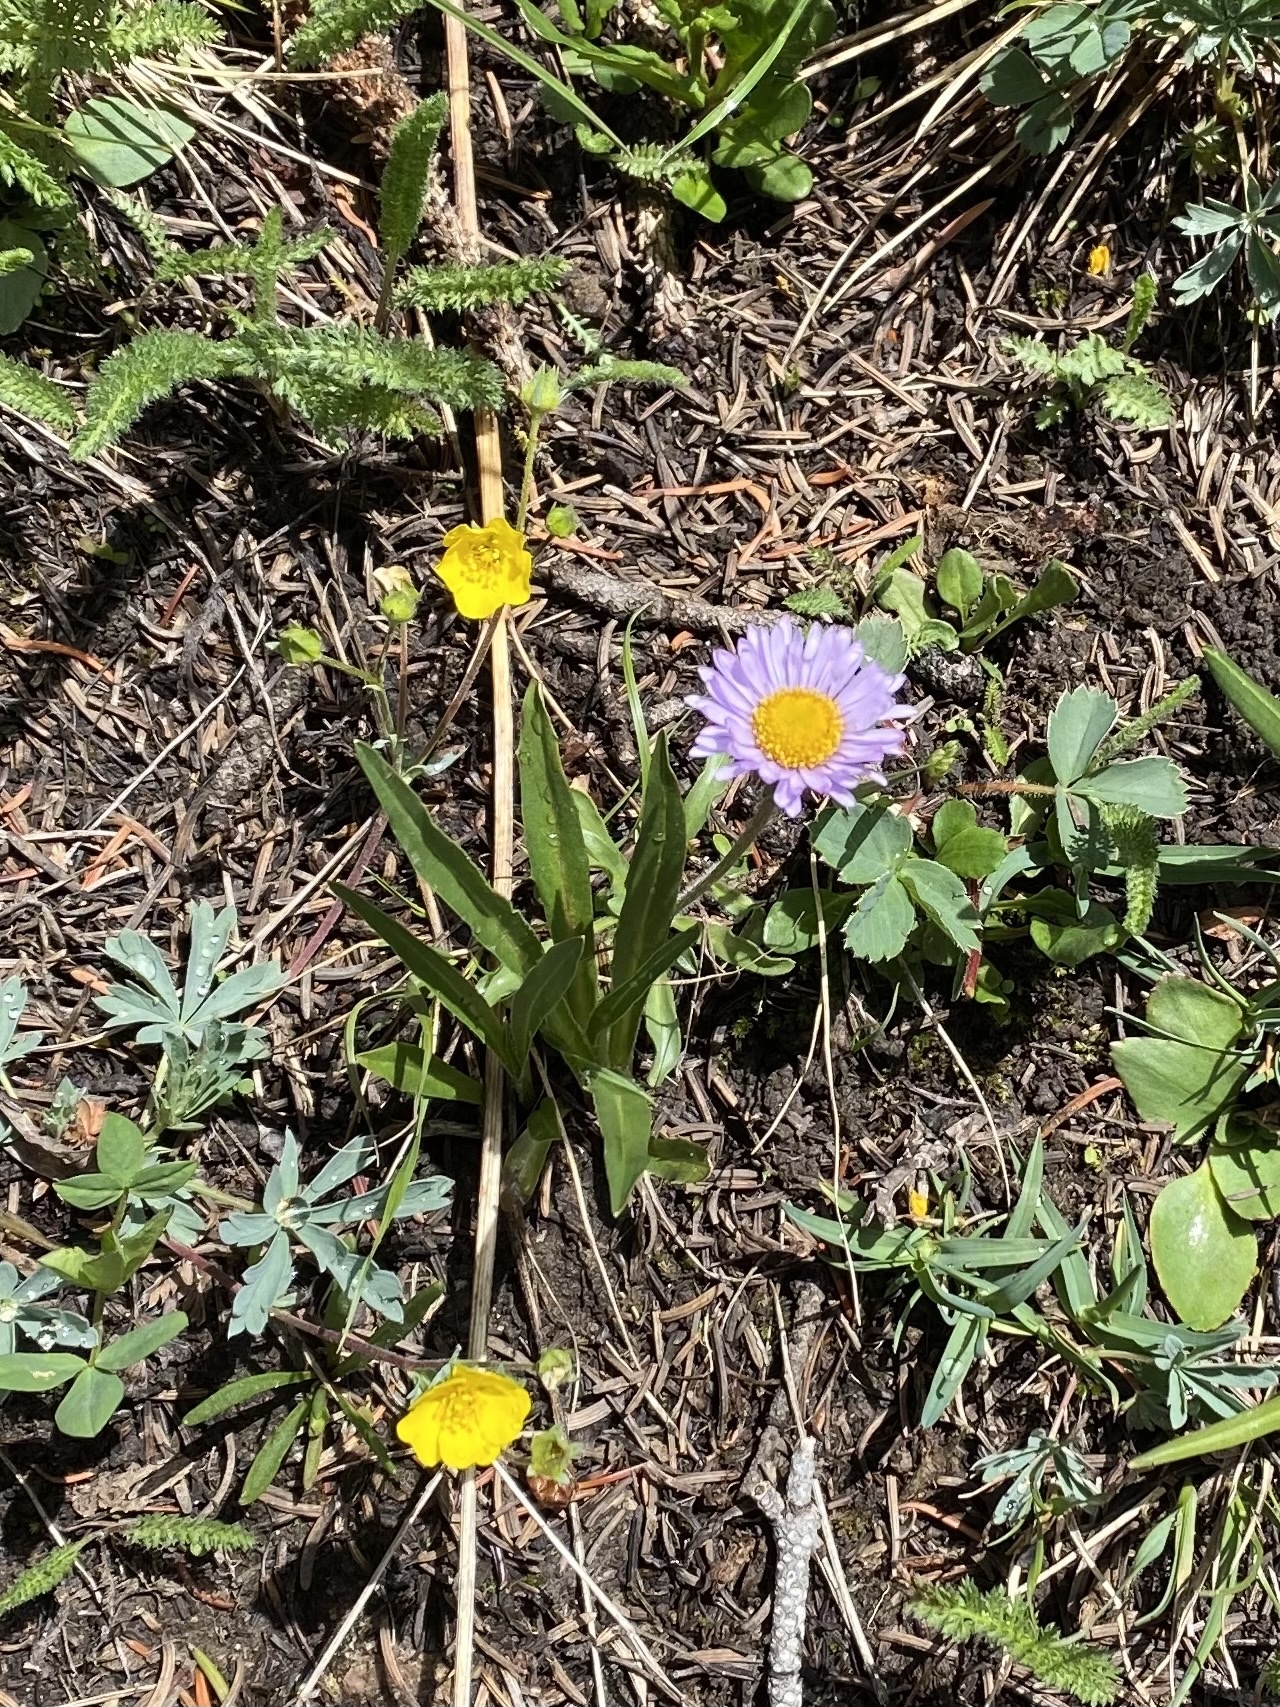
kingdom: Plantae
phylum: Tracheophyta
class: Magnoliopsida
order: Ranunculales
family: Ranunculaceae
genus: Ranunculus
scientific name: Ranunculus
